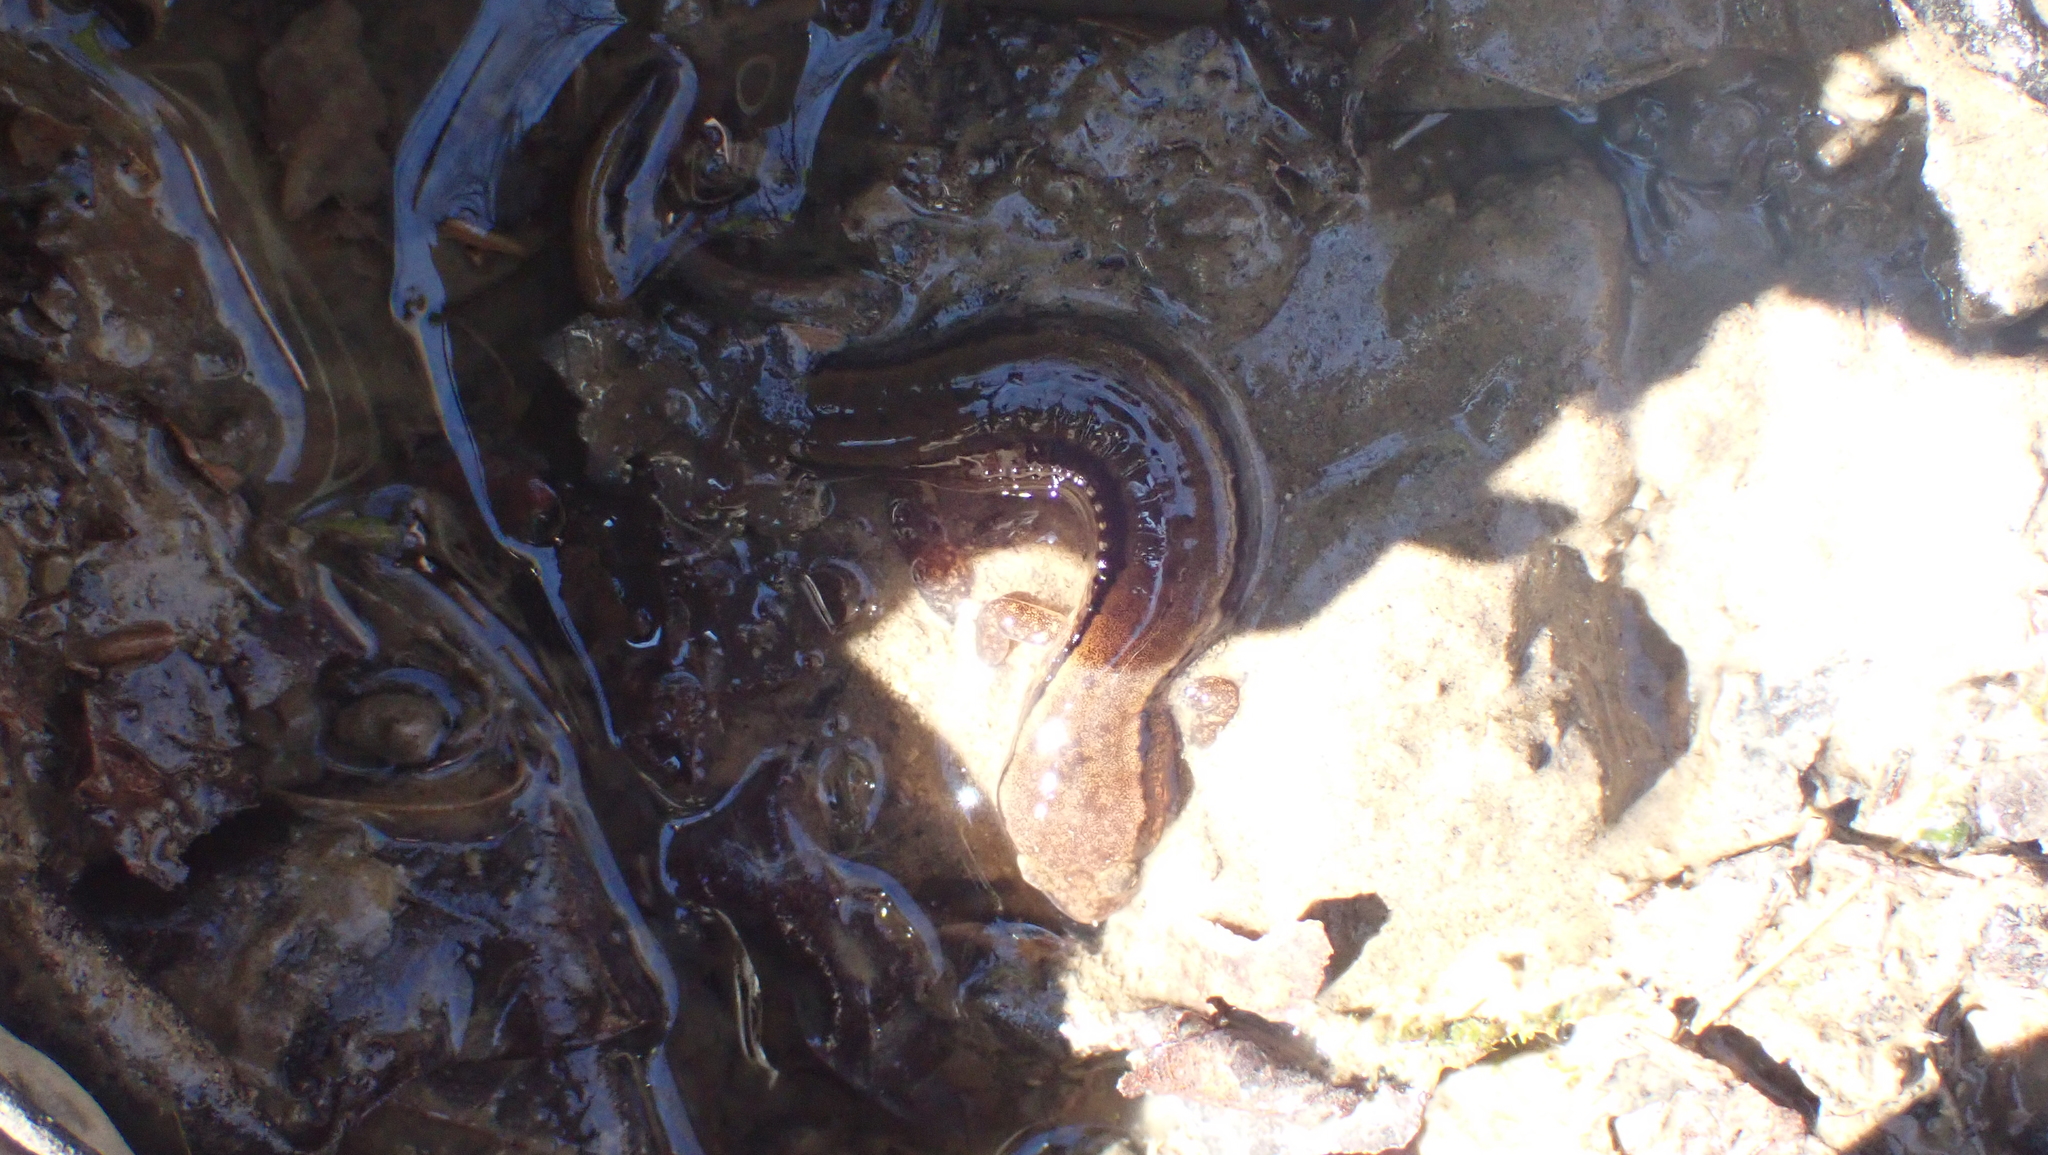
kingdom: Animalia
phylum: Chordata
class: Amphibia
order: Caudata
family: Plethodontidae
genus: Eurycea
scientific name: Eurycea cirrigera
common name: Southern two-lined salamander
